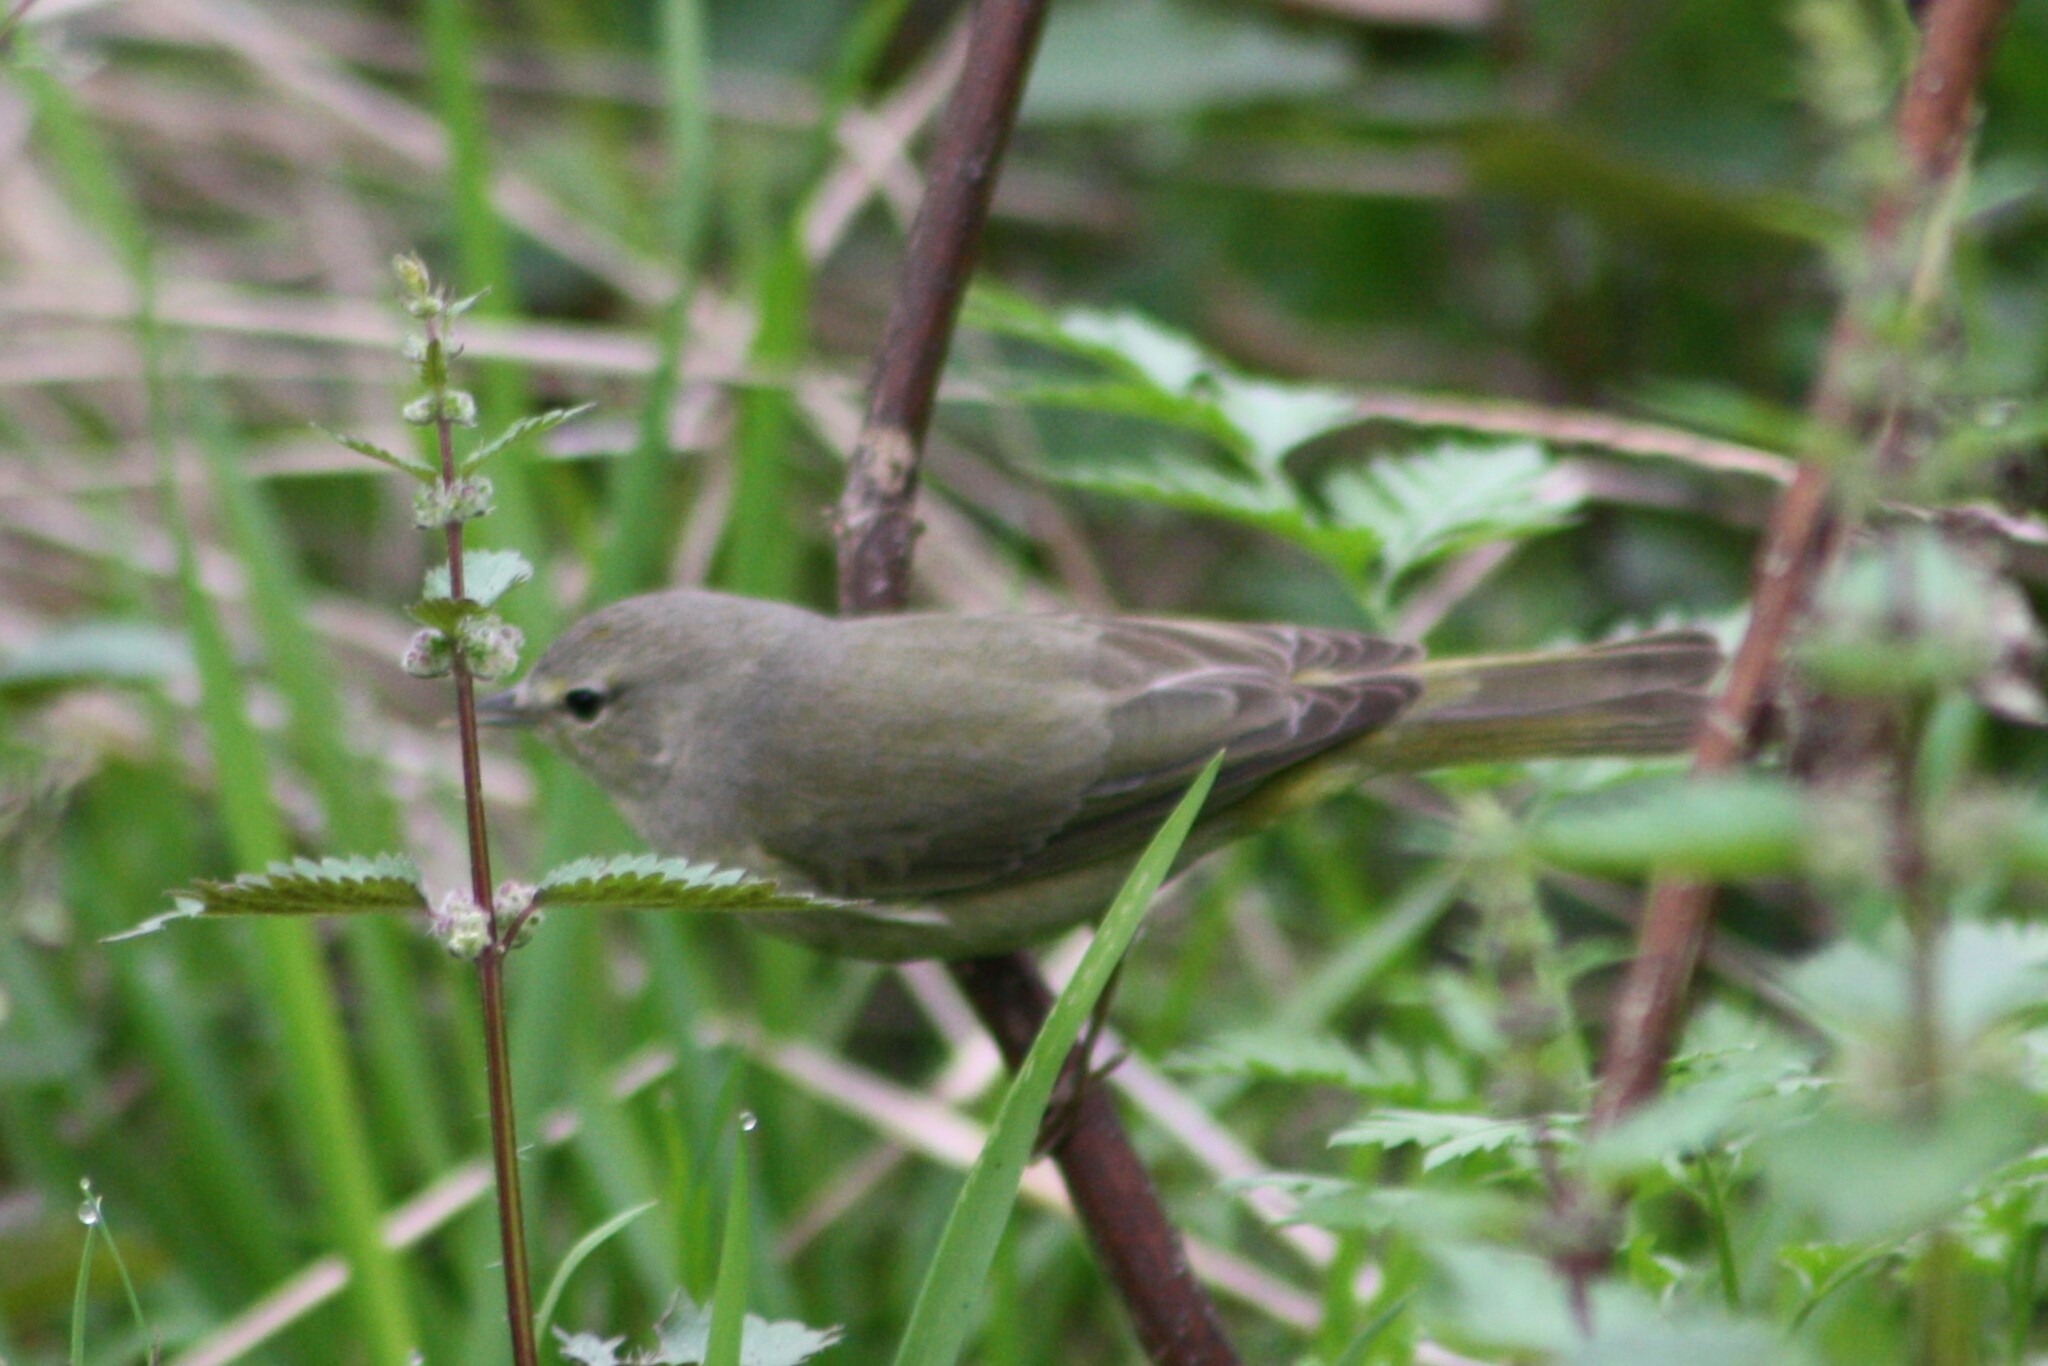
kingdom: Animalia
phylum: Chordata
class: Aves
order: Passeriformes
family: Parulidae
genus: Leiothlypis
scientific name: Leiothlypis celata
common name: Orange-crowned warbler
